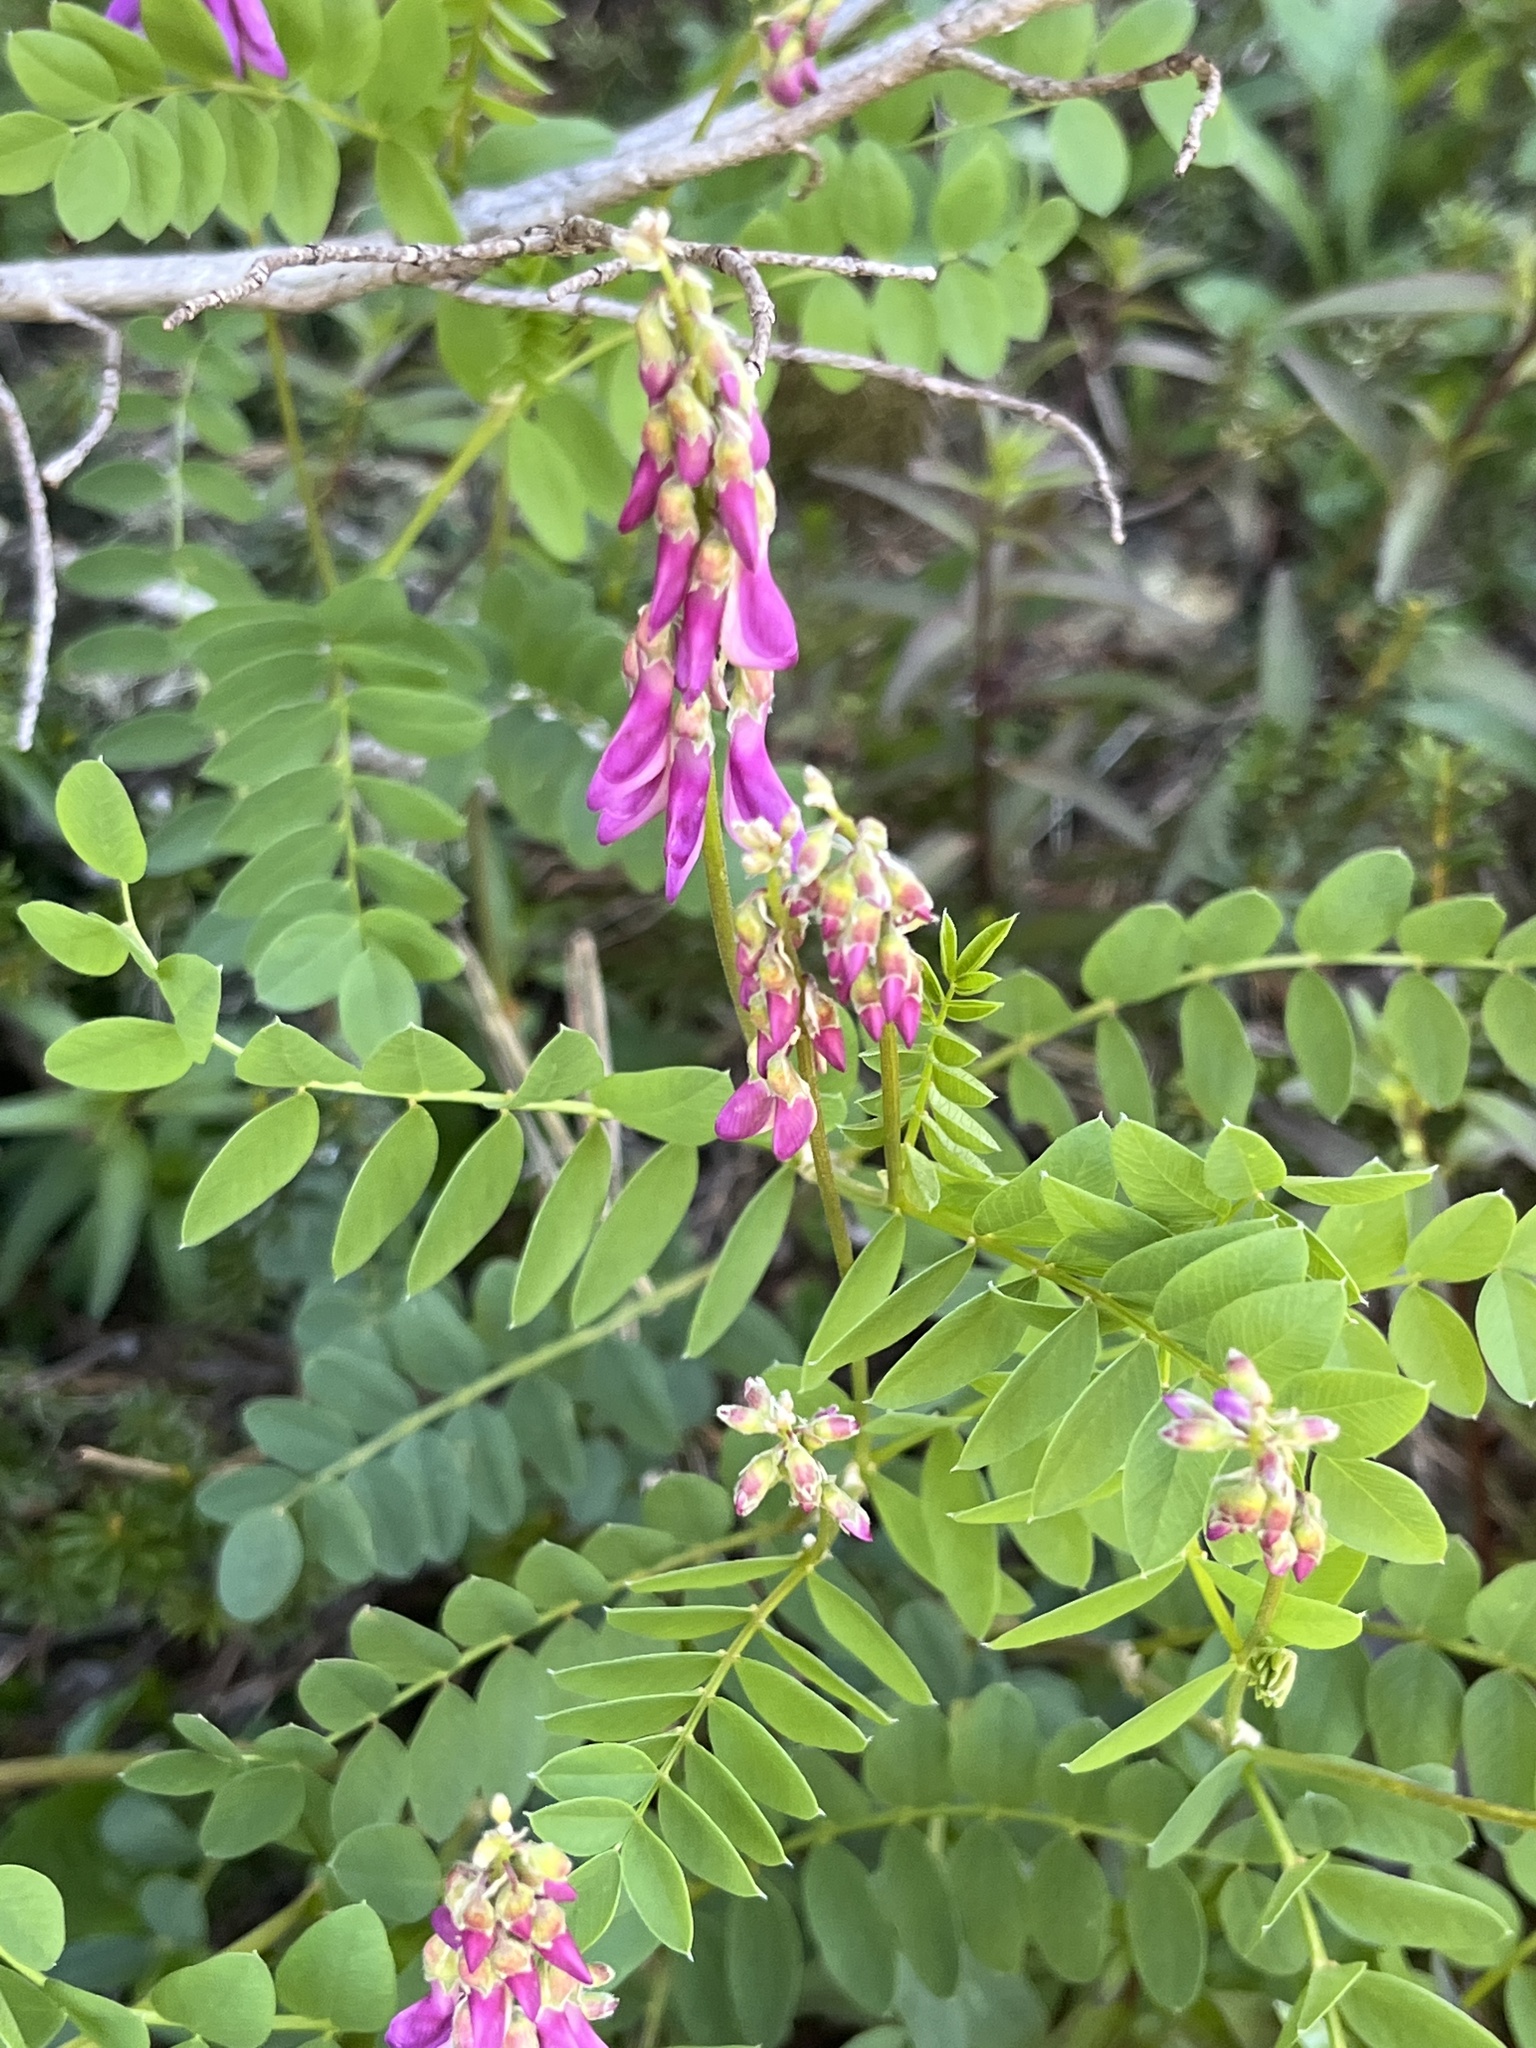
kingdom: Plantae
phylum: Tracheophyta
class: Magnoliopsida
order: Fabales
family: Fabaceae
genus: Hedysarum
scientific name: Hedysarum occidentale
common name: Western hedysarum
